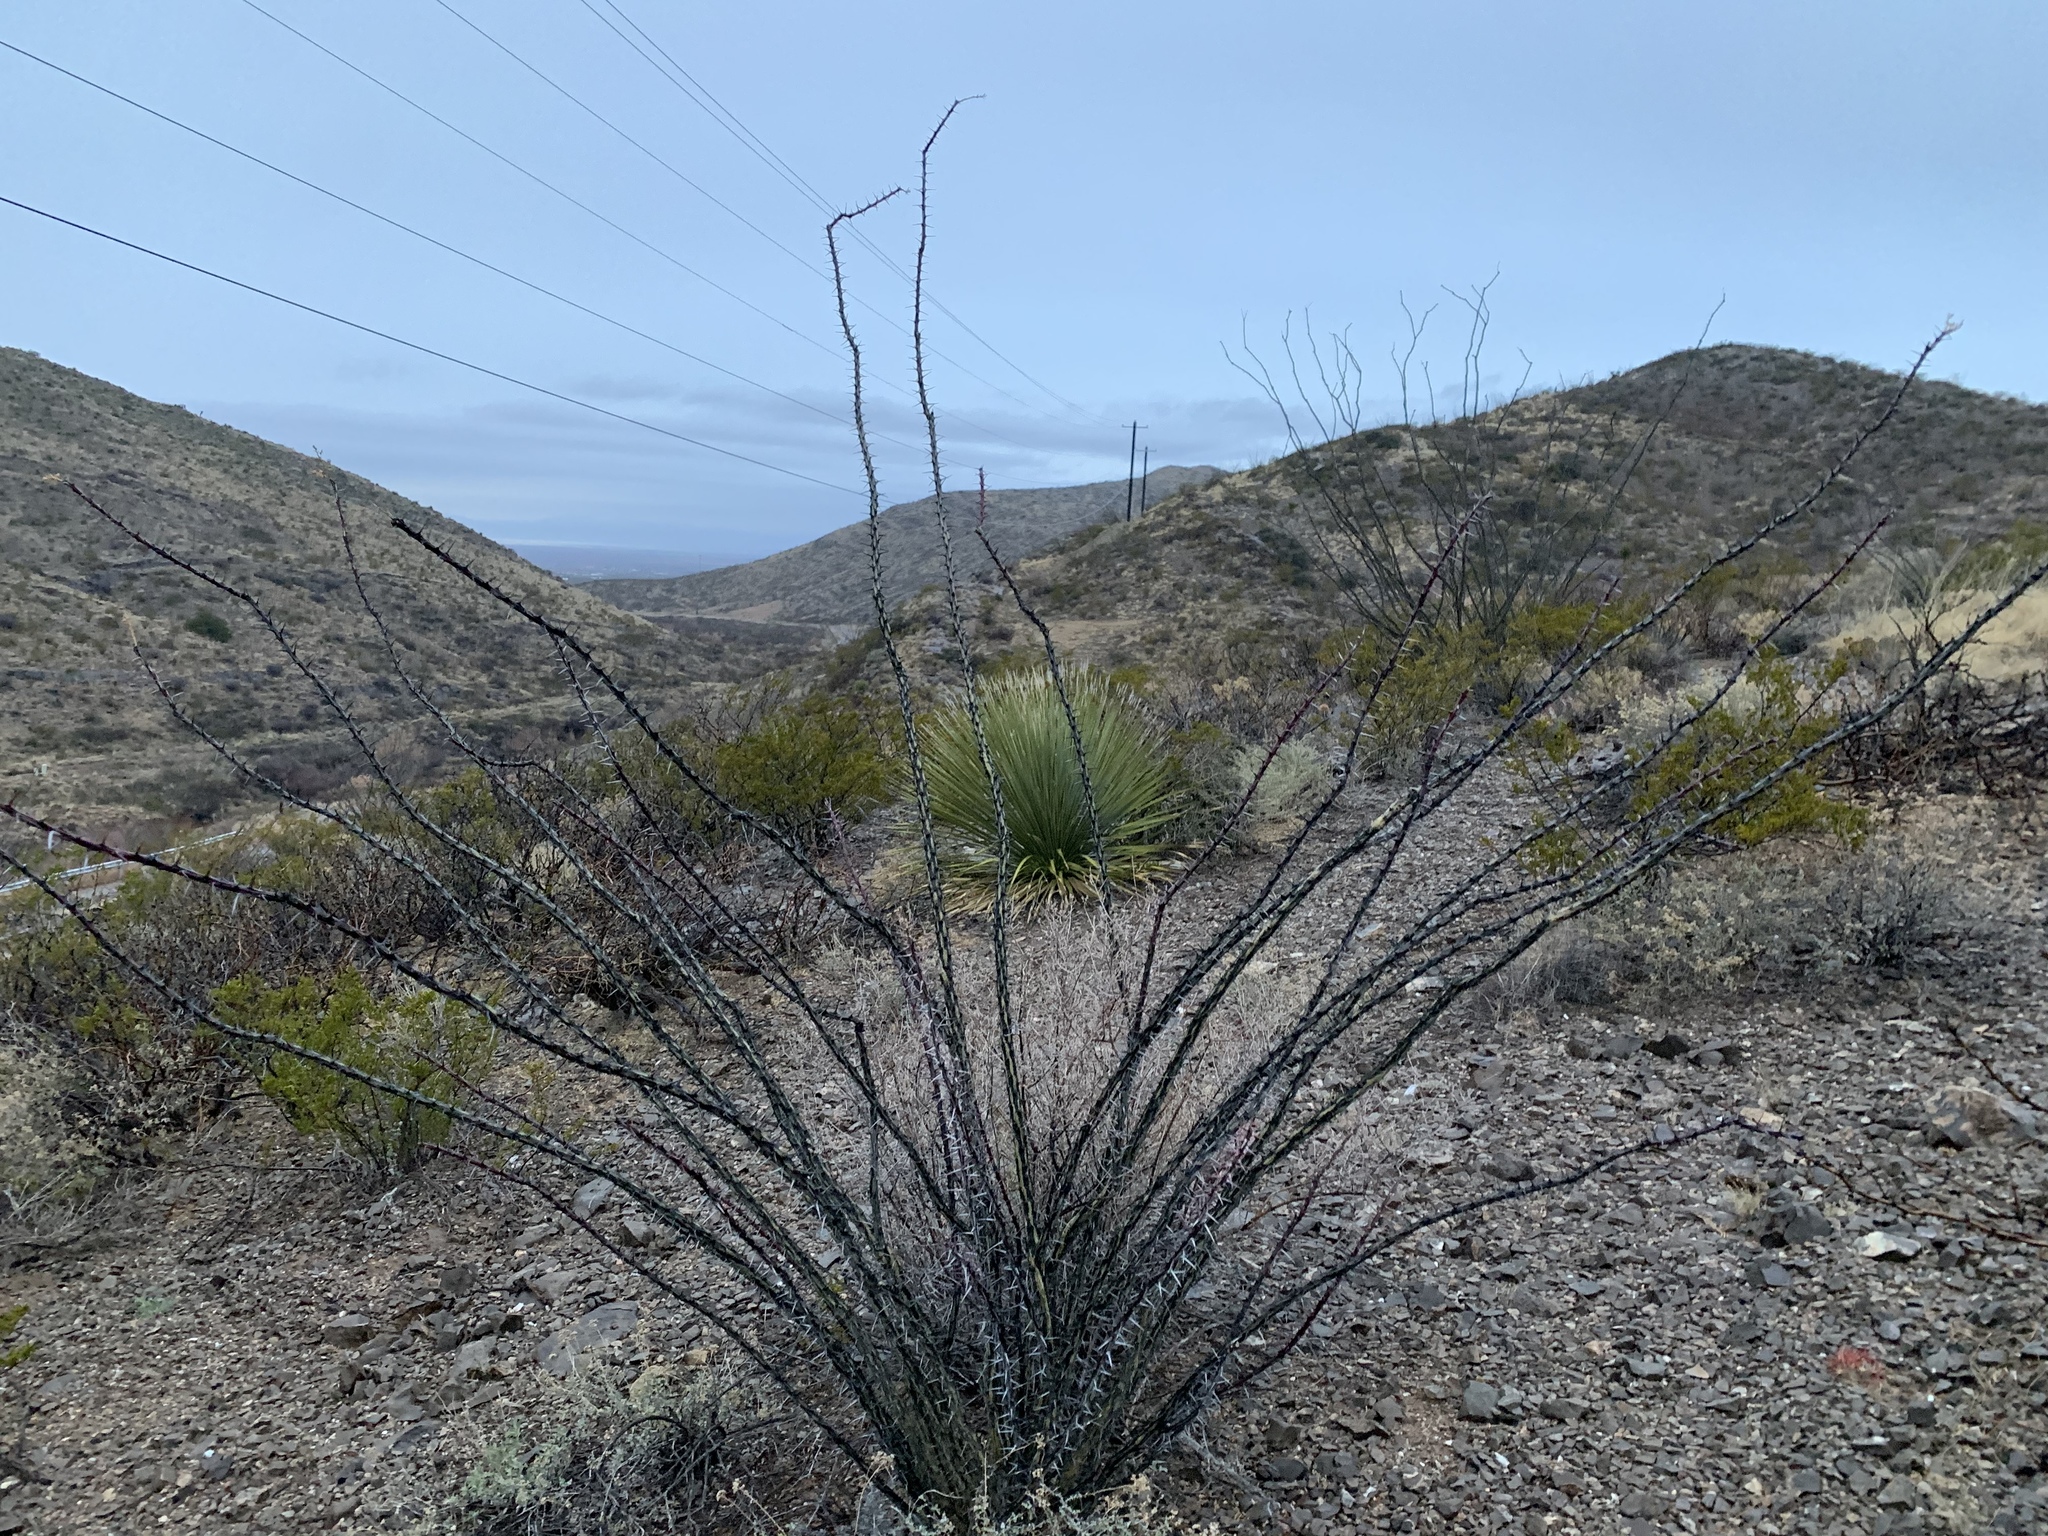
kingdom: Plantae
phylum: Tracheophyta
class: Magnoliopsida
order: Ericales
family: Fouquieriaceae
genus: Fouquieria
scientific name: Fouquieria splendens
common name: Vine-cactus
